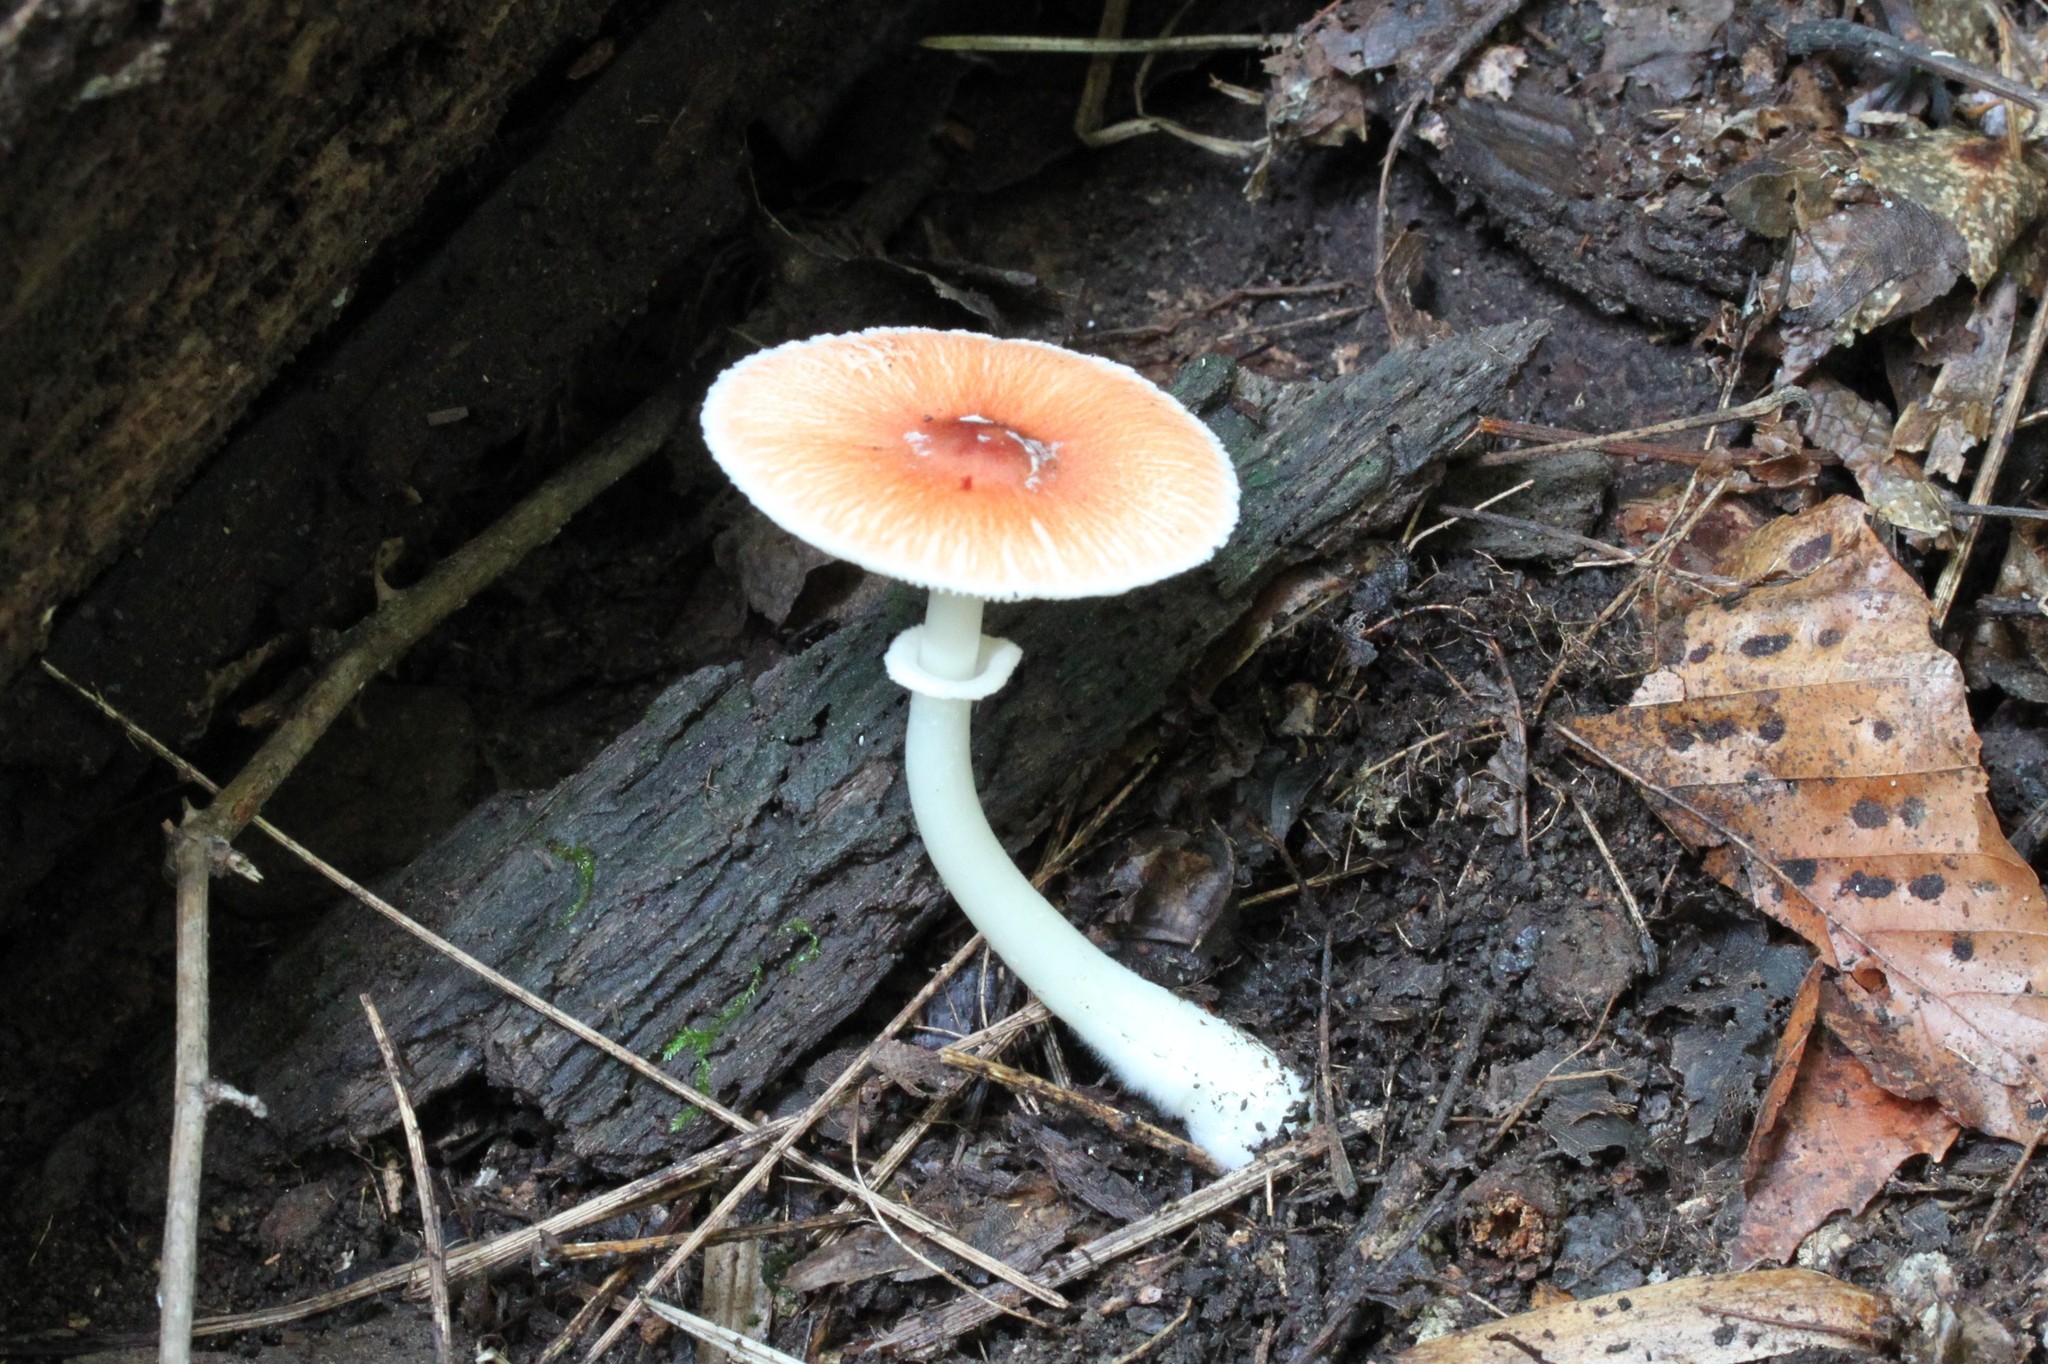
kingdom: Fungi
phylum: Basidiomycota
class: Agaricomycetes
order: Agaricales
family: Agaricaceae
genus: Leucoagaricus
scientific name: Leucoagaricus rubrotinctus
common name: Ruby dapperling
